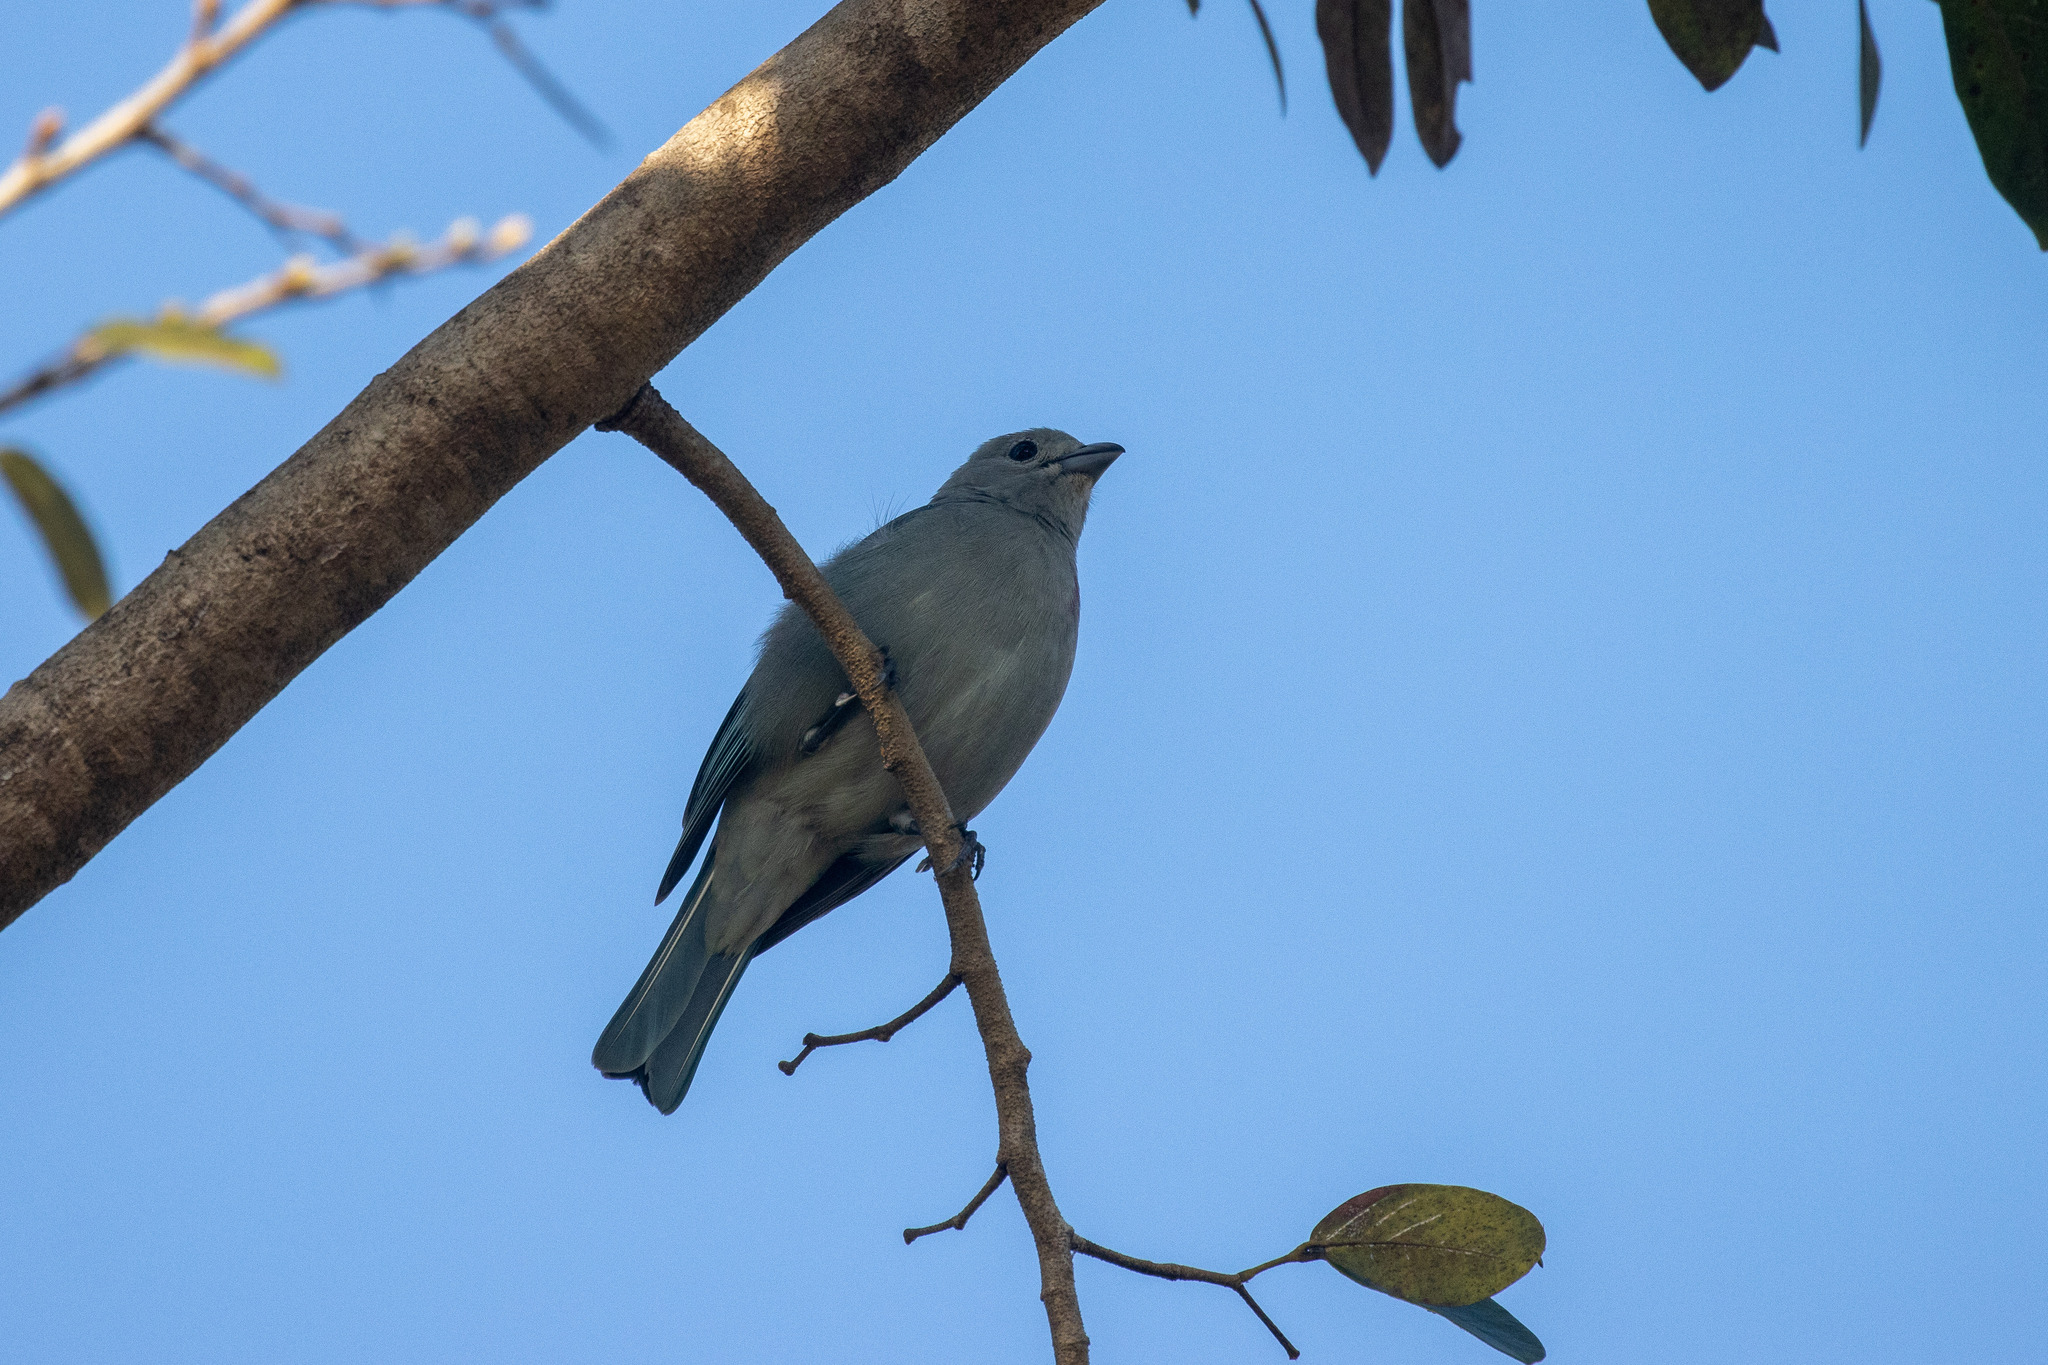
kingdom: Animalia
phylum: Chordata
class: Aves
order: Passeriformes
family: Thraupidae
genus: Thraupis
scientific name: Thraupis sayaca
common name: Sayaca tanager
